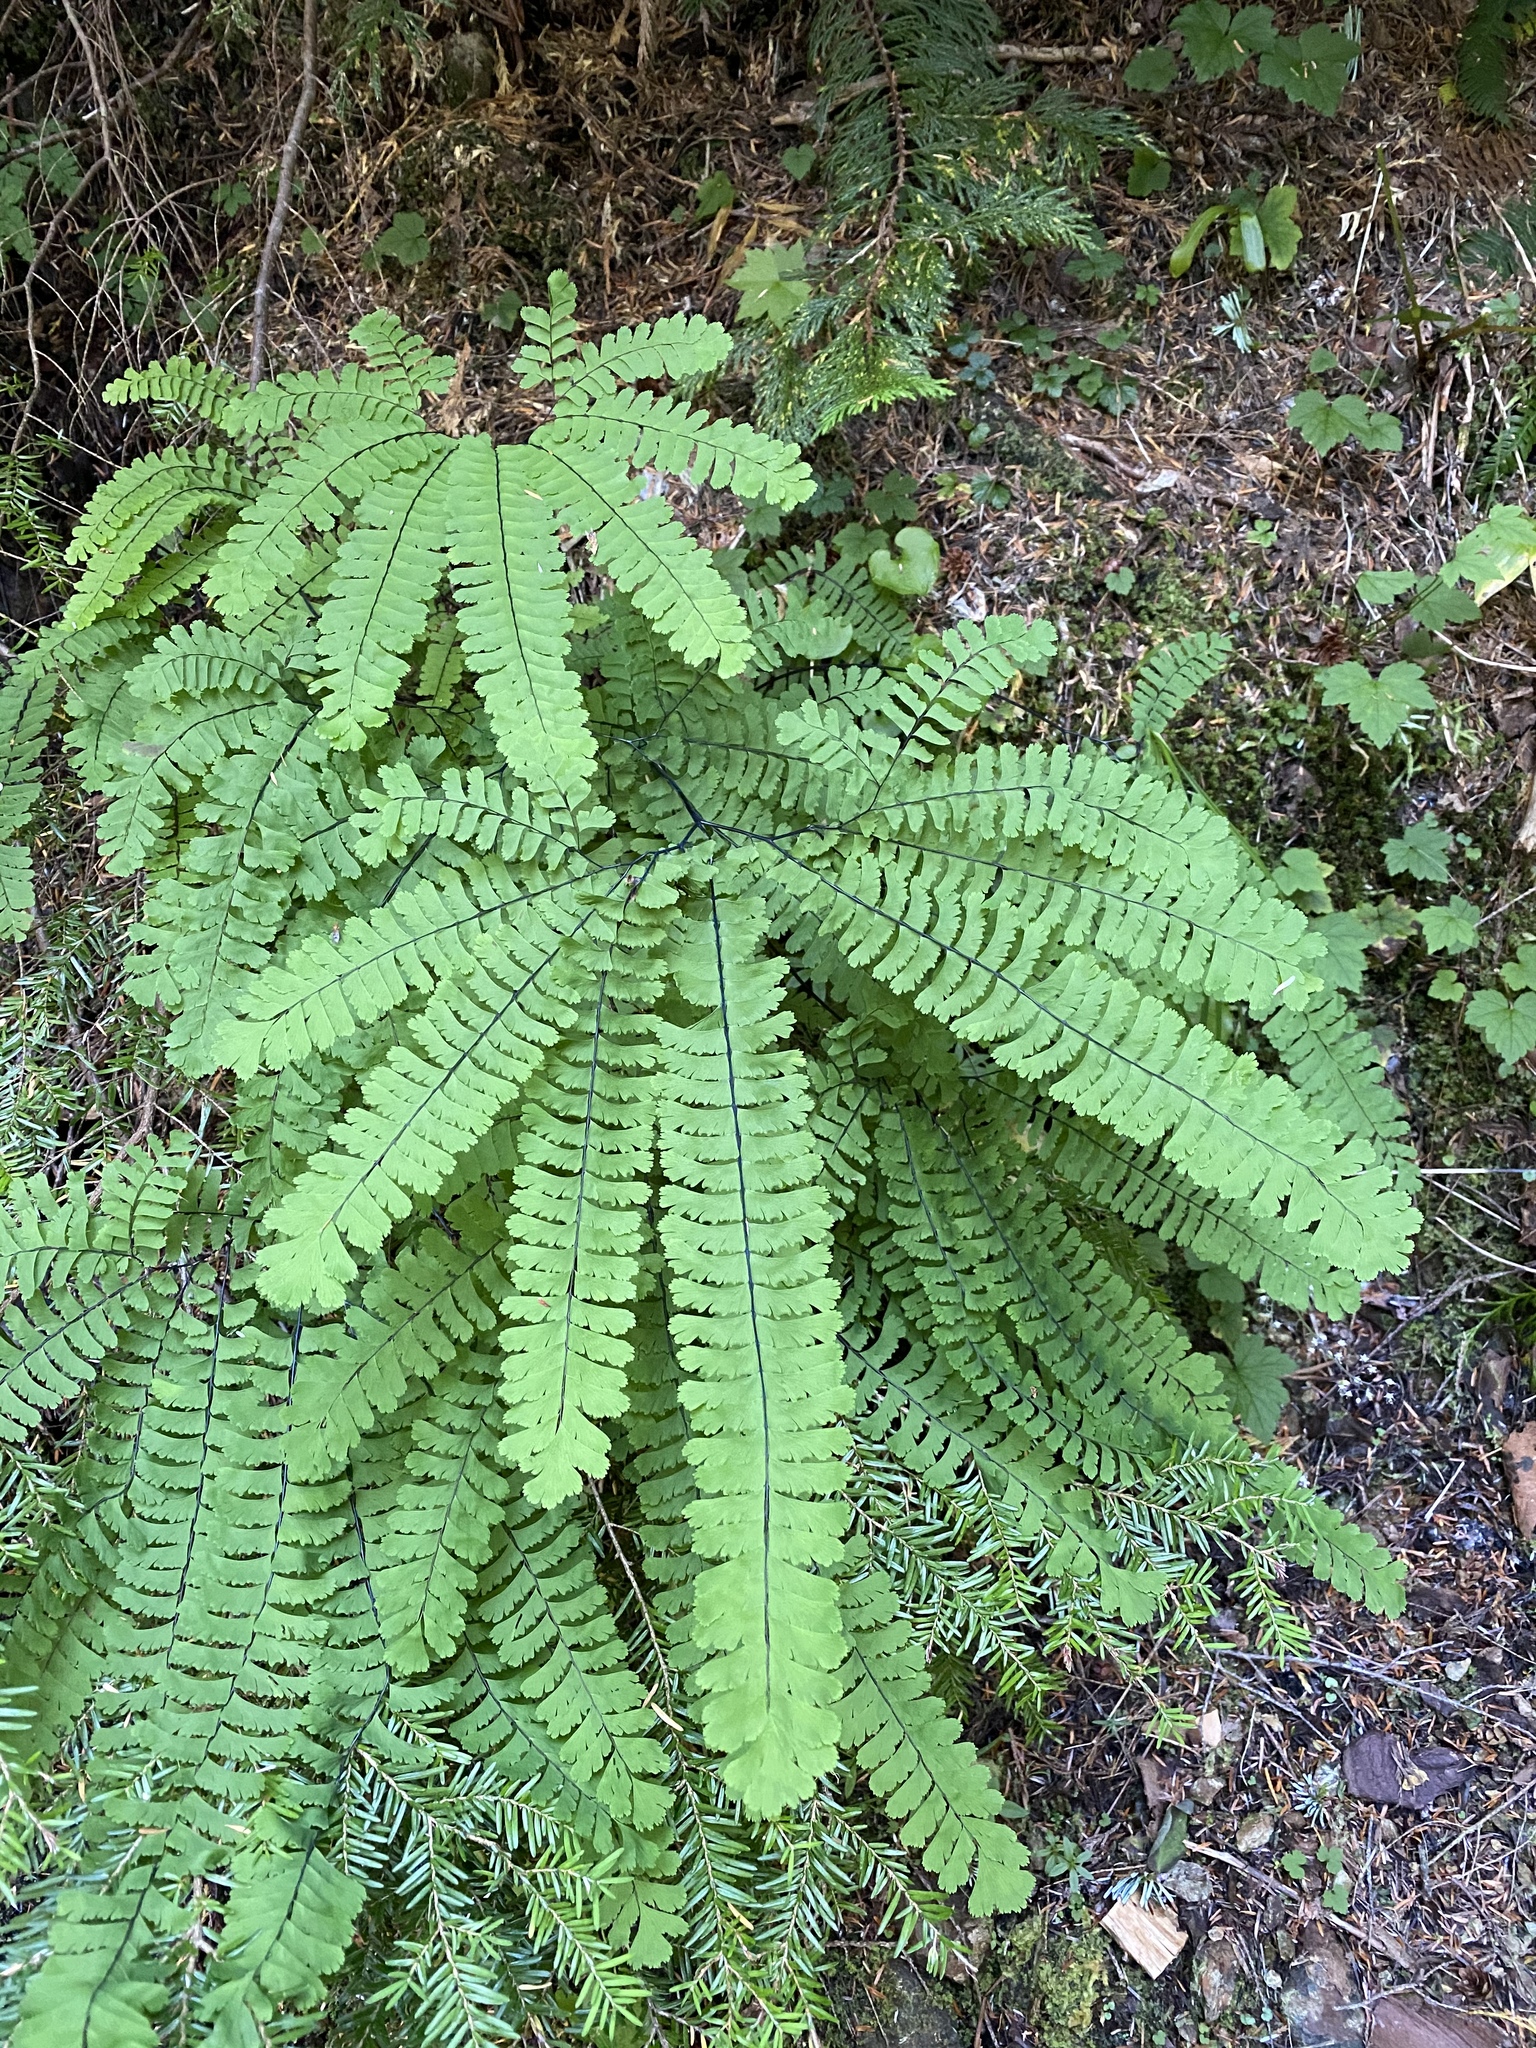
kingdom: Plantae
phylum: Tracheophyta
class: Polypodiopsida
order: Polypodiales
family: Pteridaceae
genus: Adiantum
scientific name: Adiantum aleuticum
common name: Aleutian maidenhair fern
